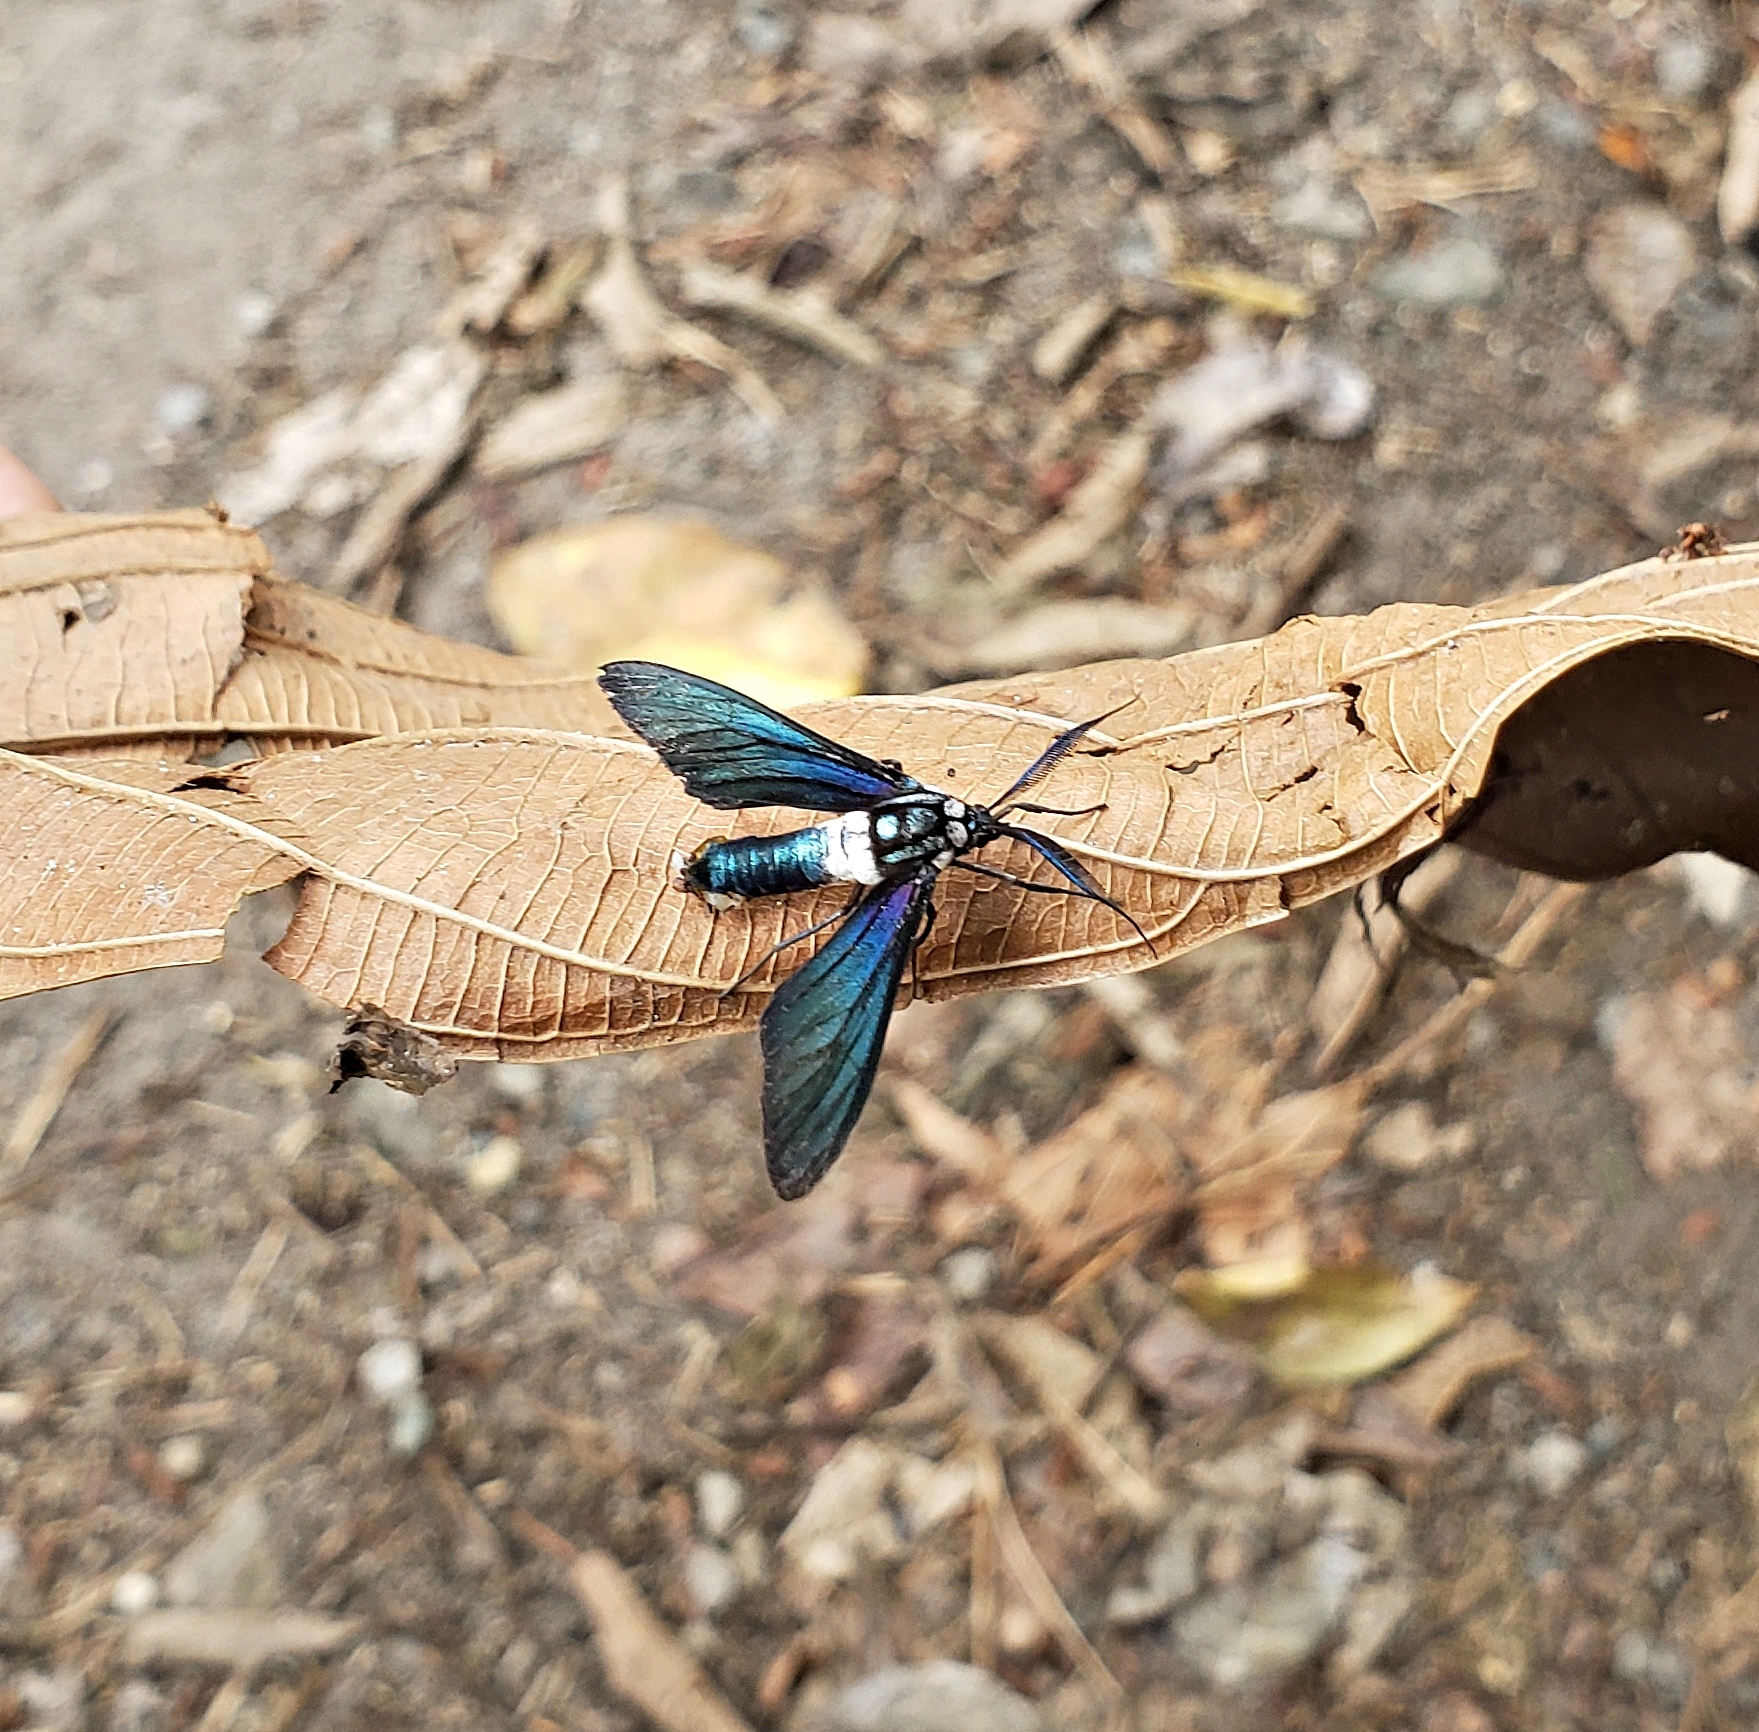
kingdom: Animalia
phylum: Arthropoda
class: Insecta
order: Lepidoptera
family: Erebidae
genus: Eriphioides
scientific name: Eriphioides ecuadoriensis
